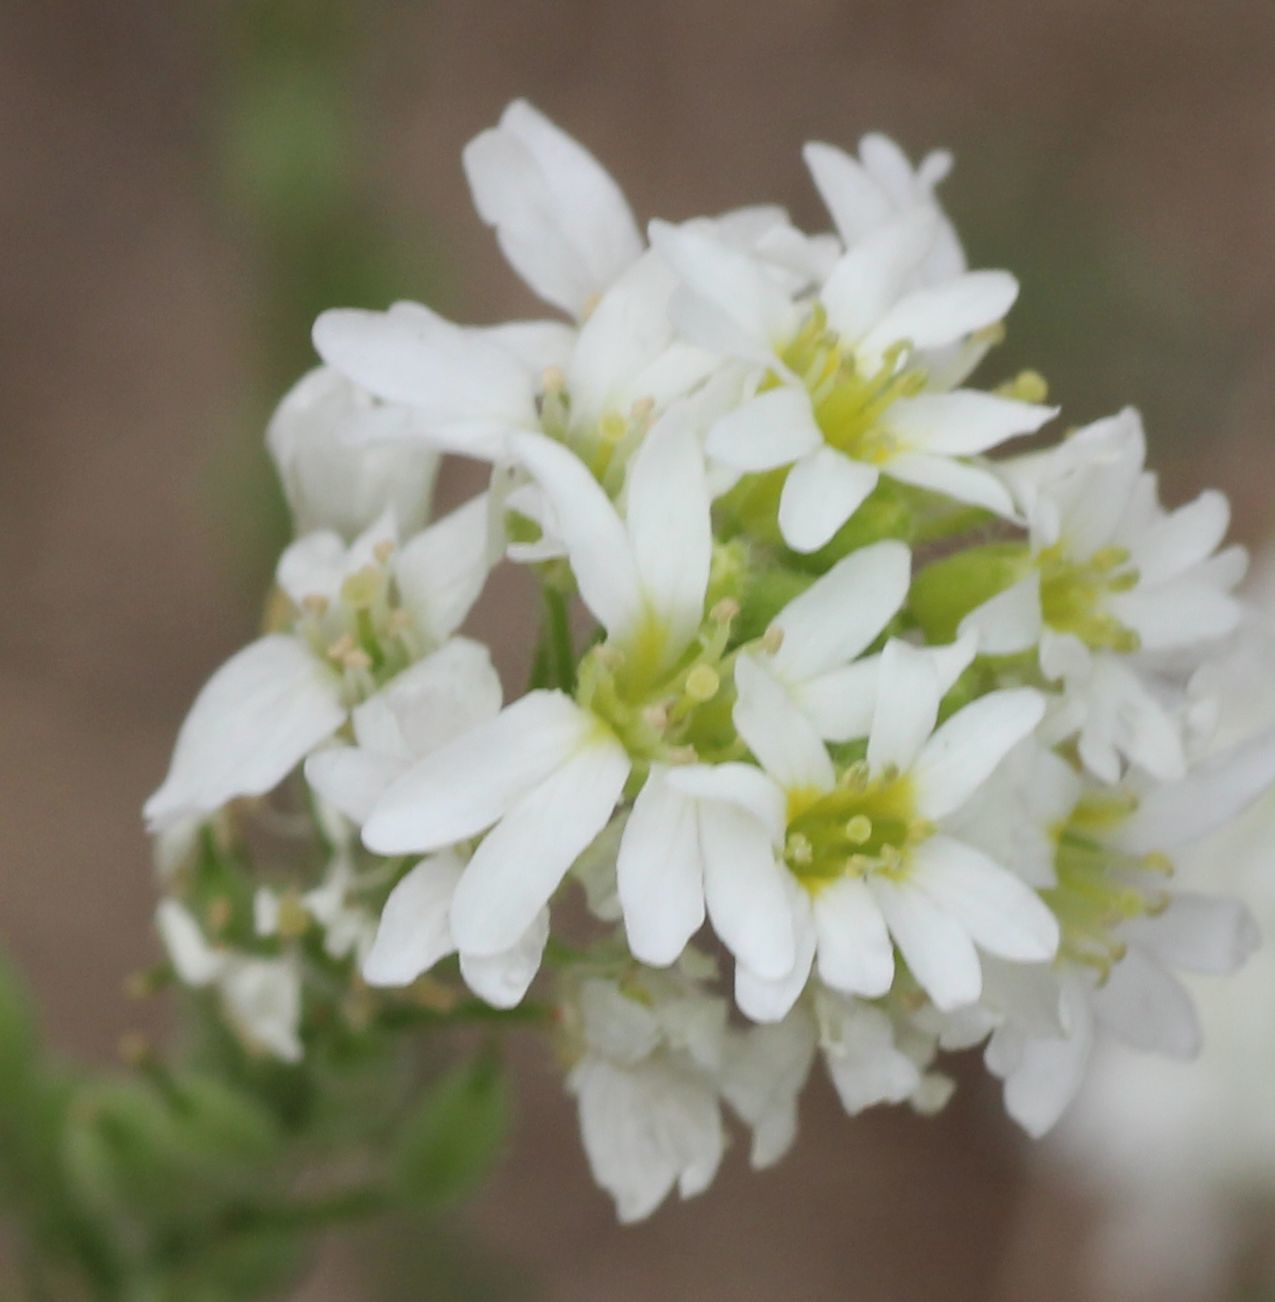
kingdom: Plantae
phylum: Tracheophyta
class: Magnoliopsida
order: Brassicales
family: Brassicaceae
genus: Berteroa
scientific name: Berteroa incana
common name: Hoary alison
